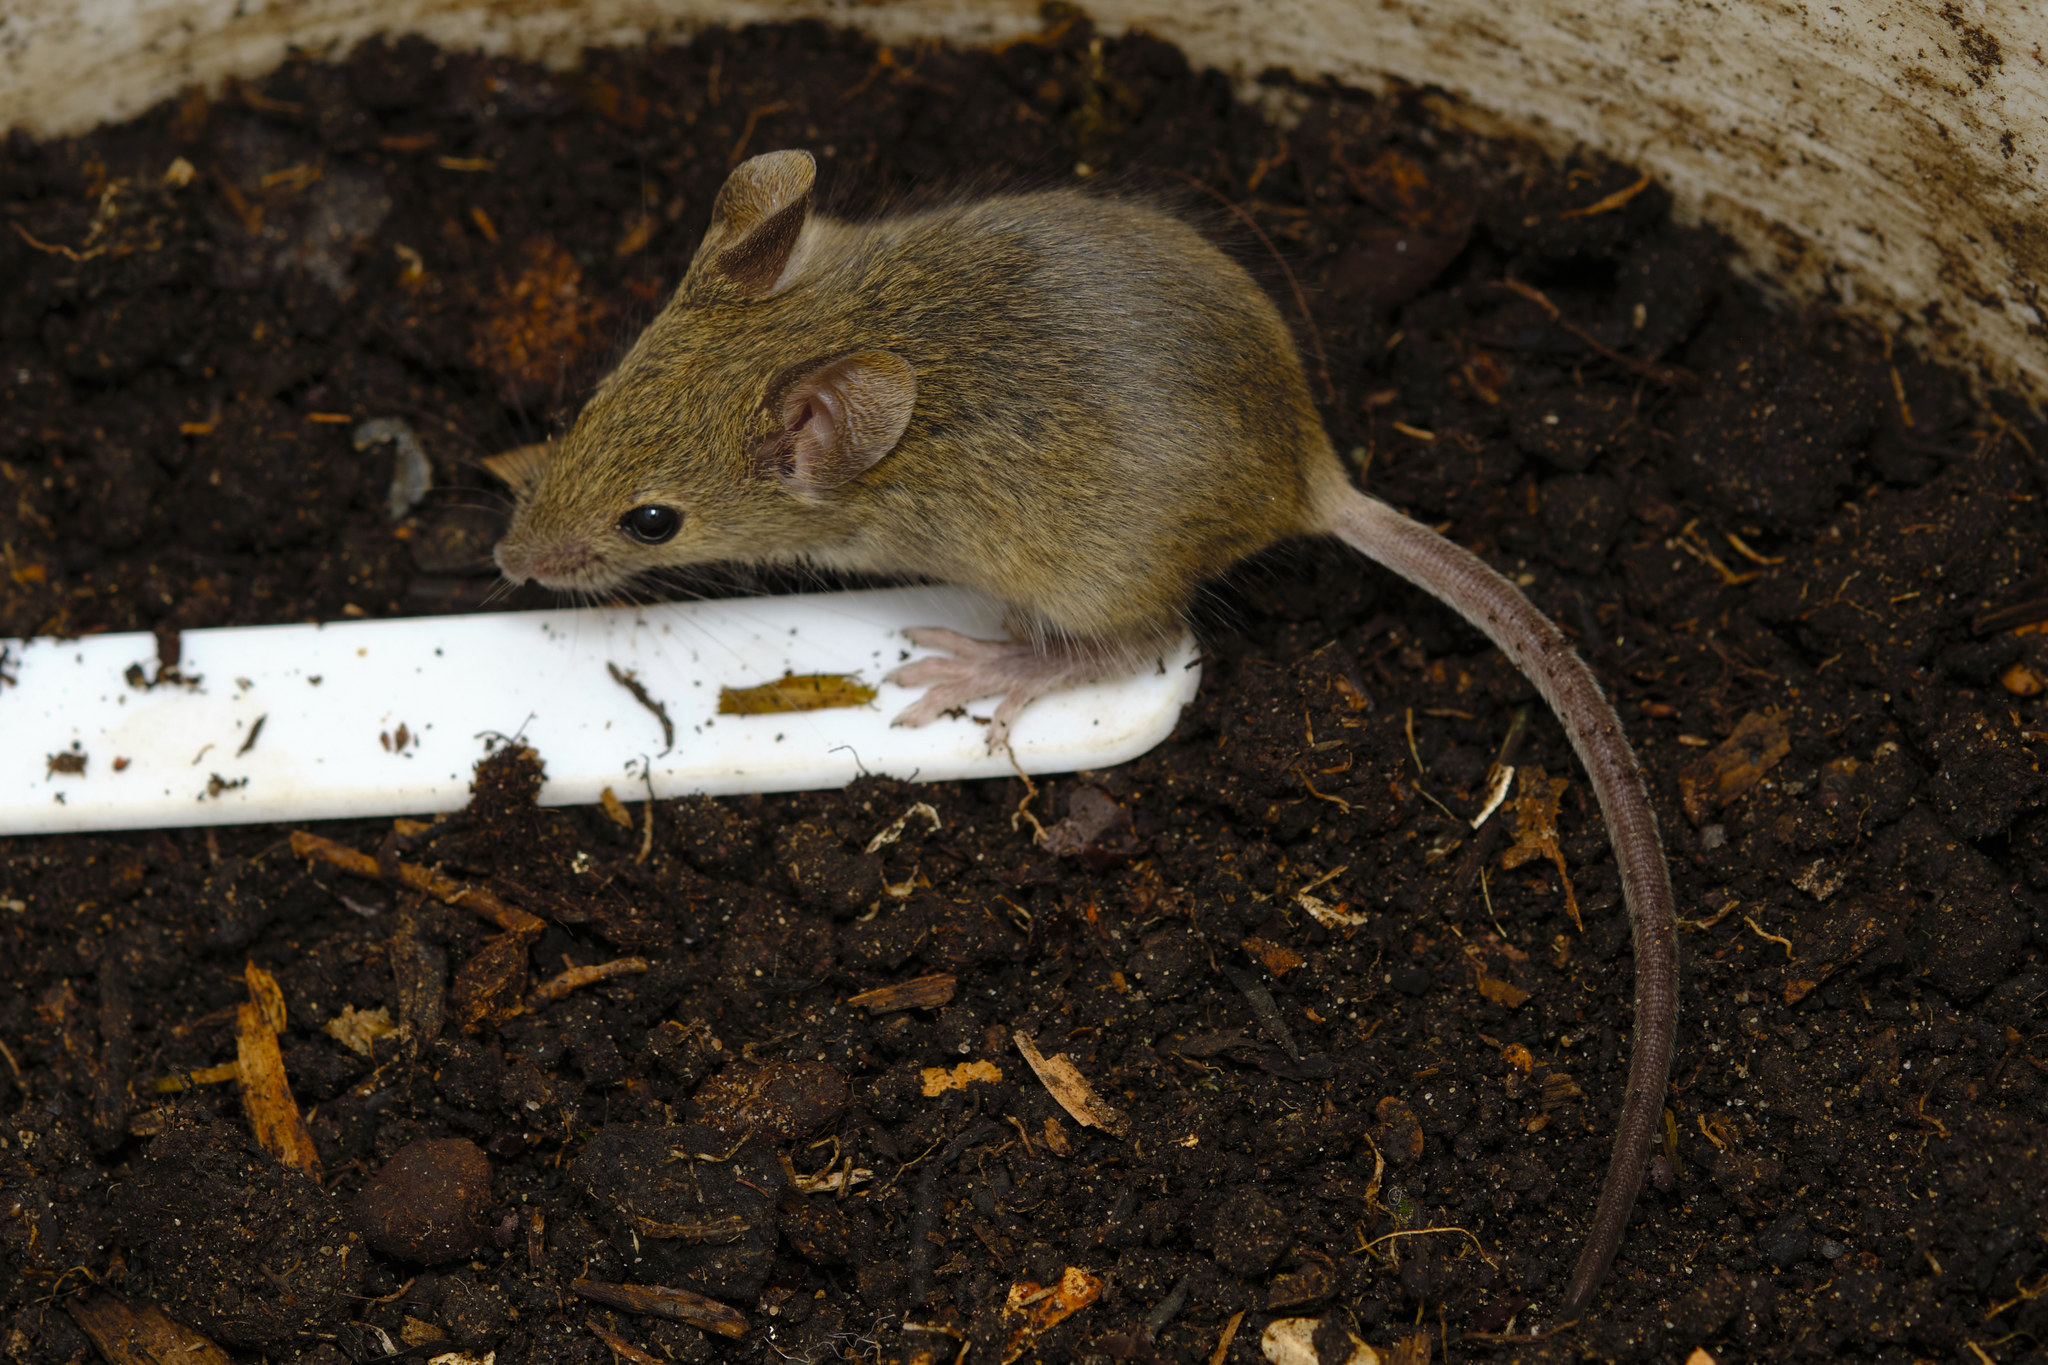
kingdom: Animalia
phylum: Chordata
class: Mammalia
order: Rodentia
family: Muridae
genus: Mus
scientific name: Mus musculus
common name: House mouse
